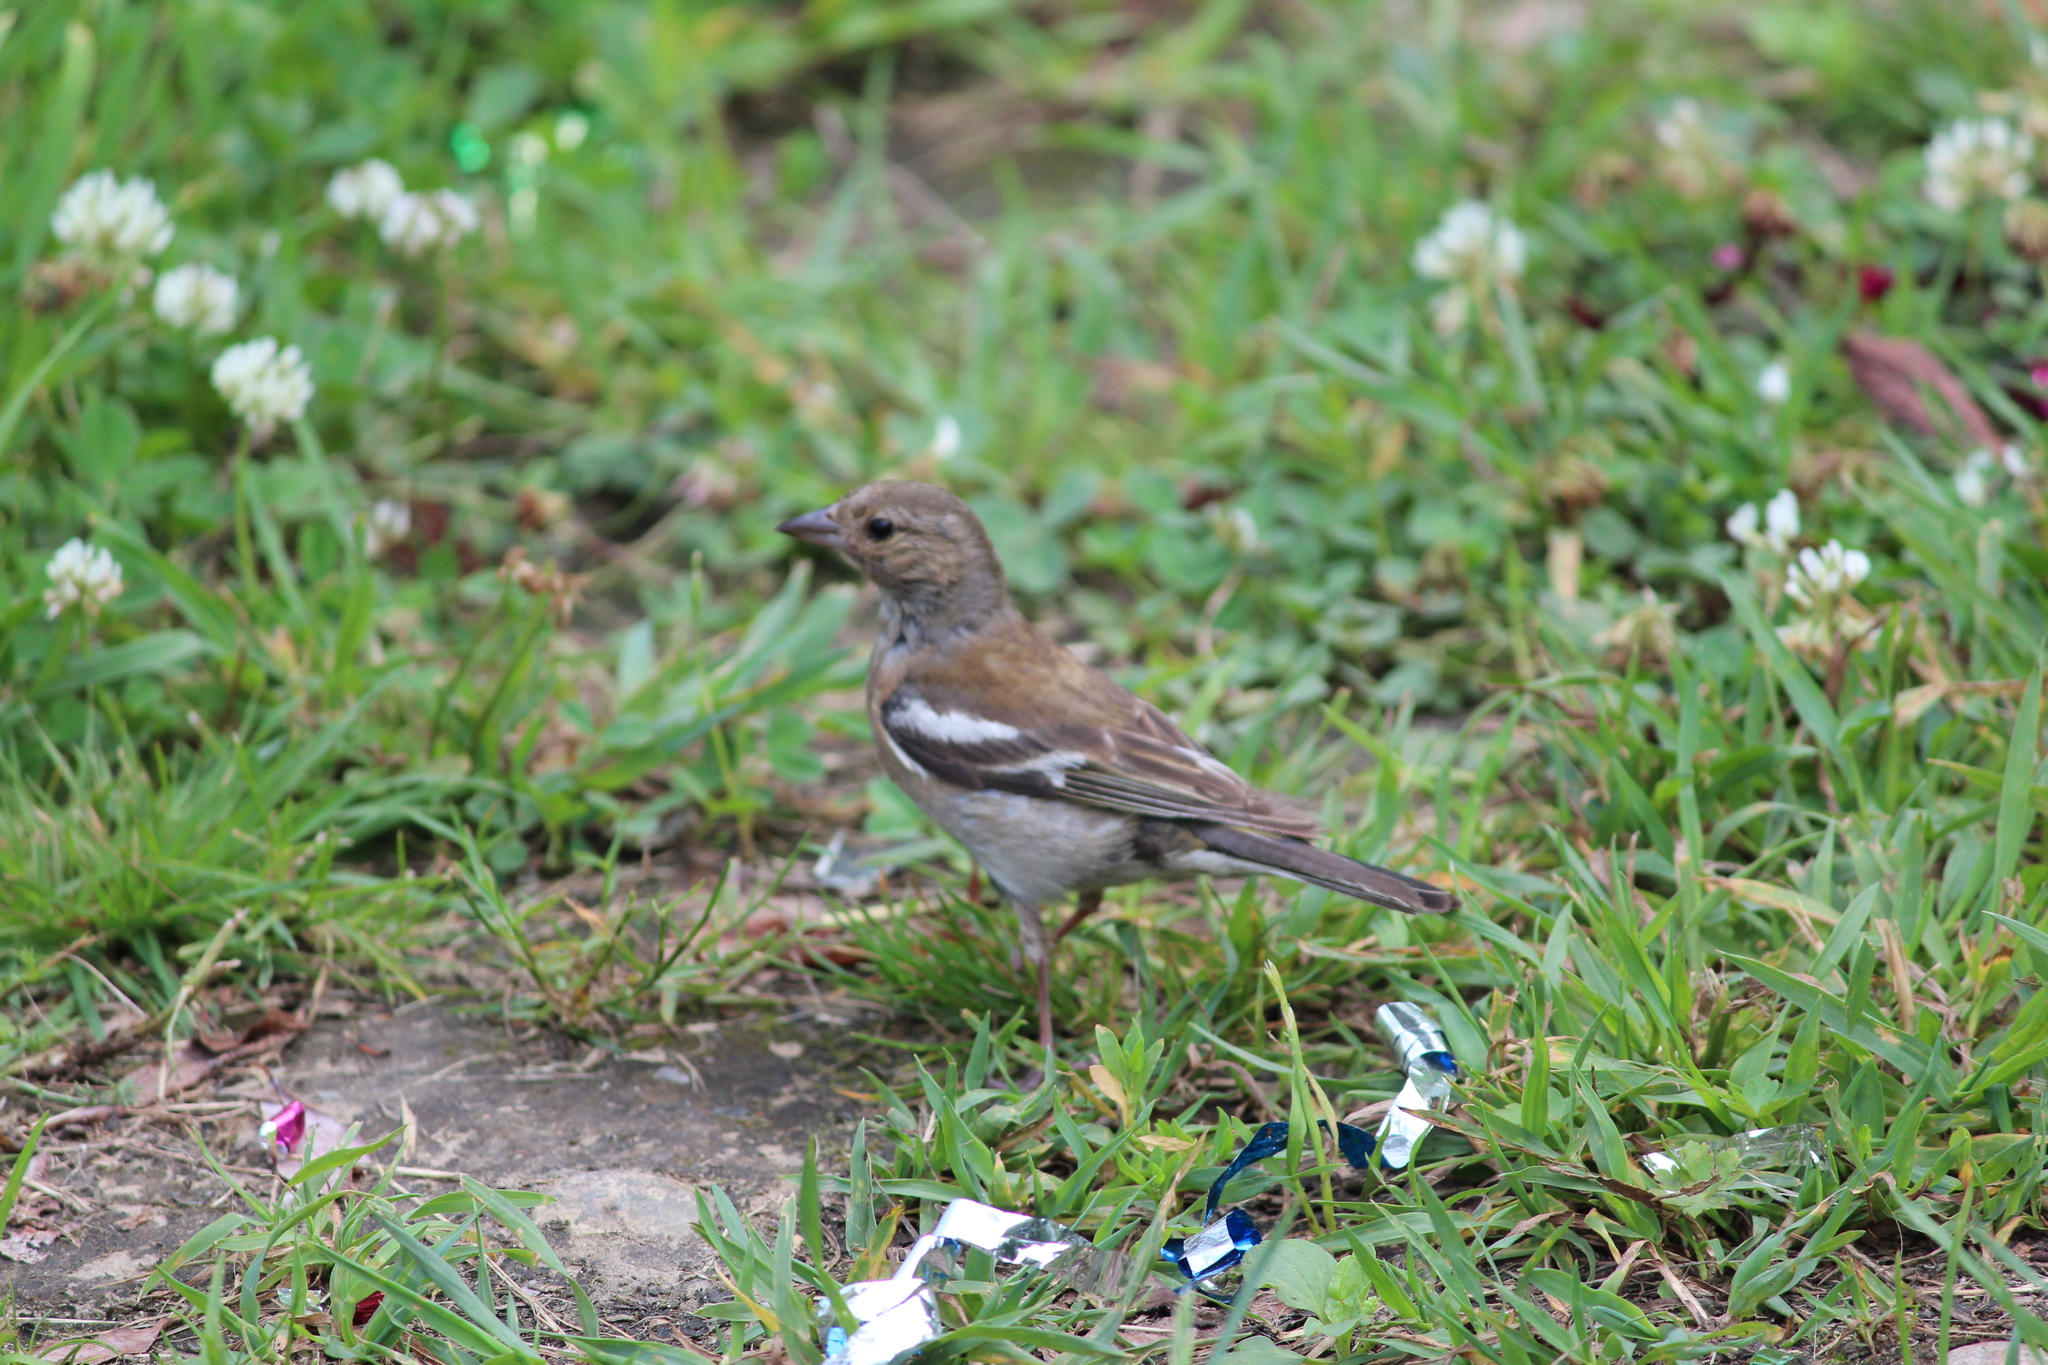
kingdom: Animalia
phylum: Chordata
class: Aves
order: Passeriformes
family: Fringillidae
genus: Fringilla
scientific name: Fringilla coelebs
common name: Common chaffinch
